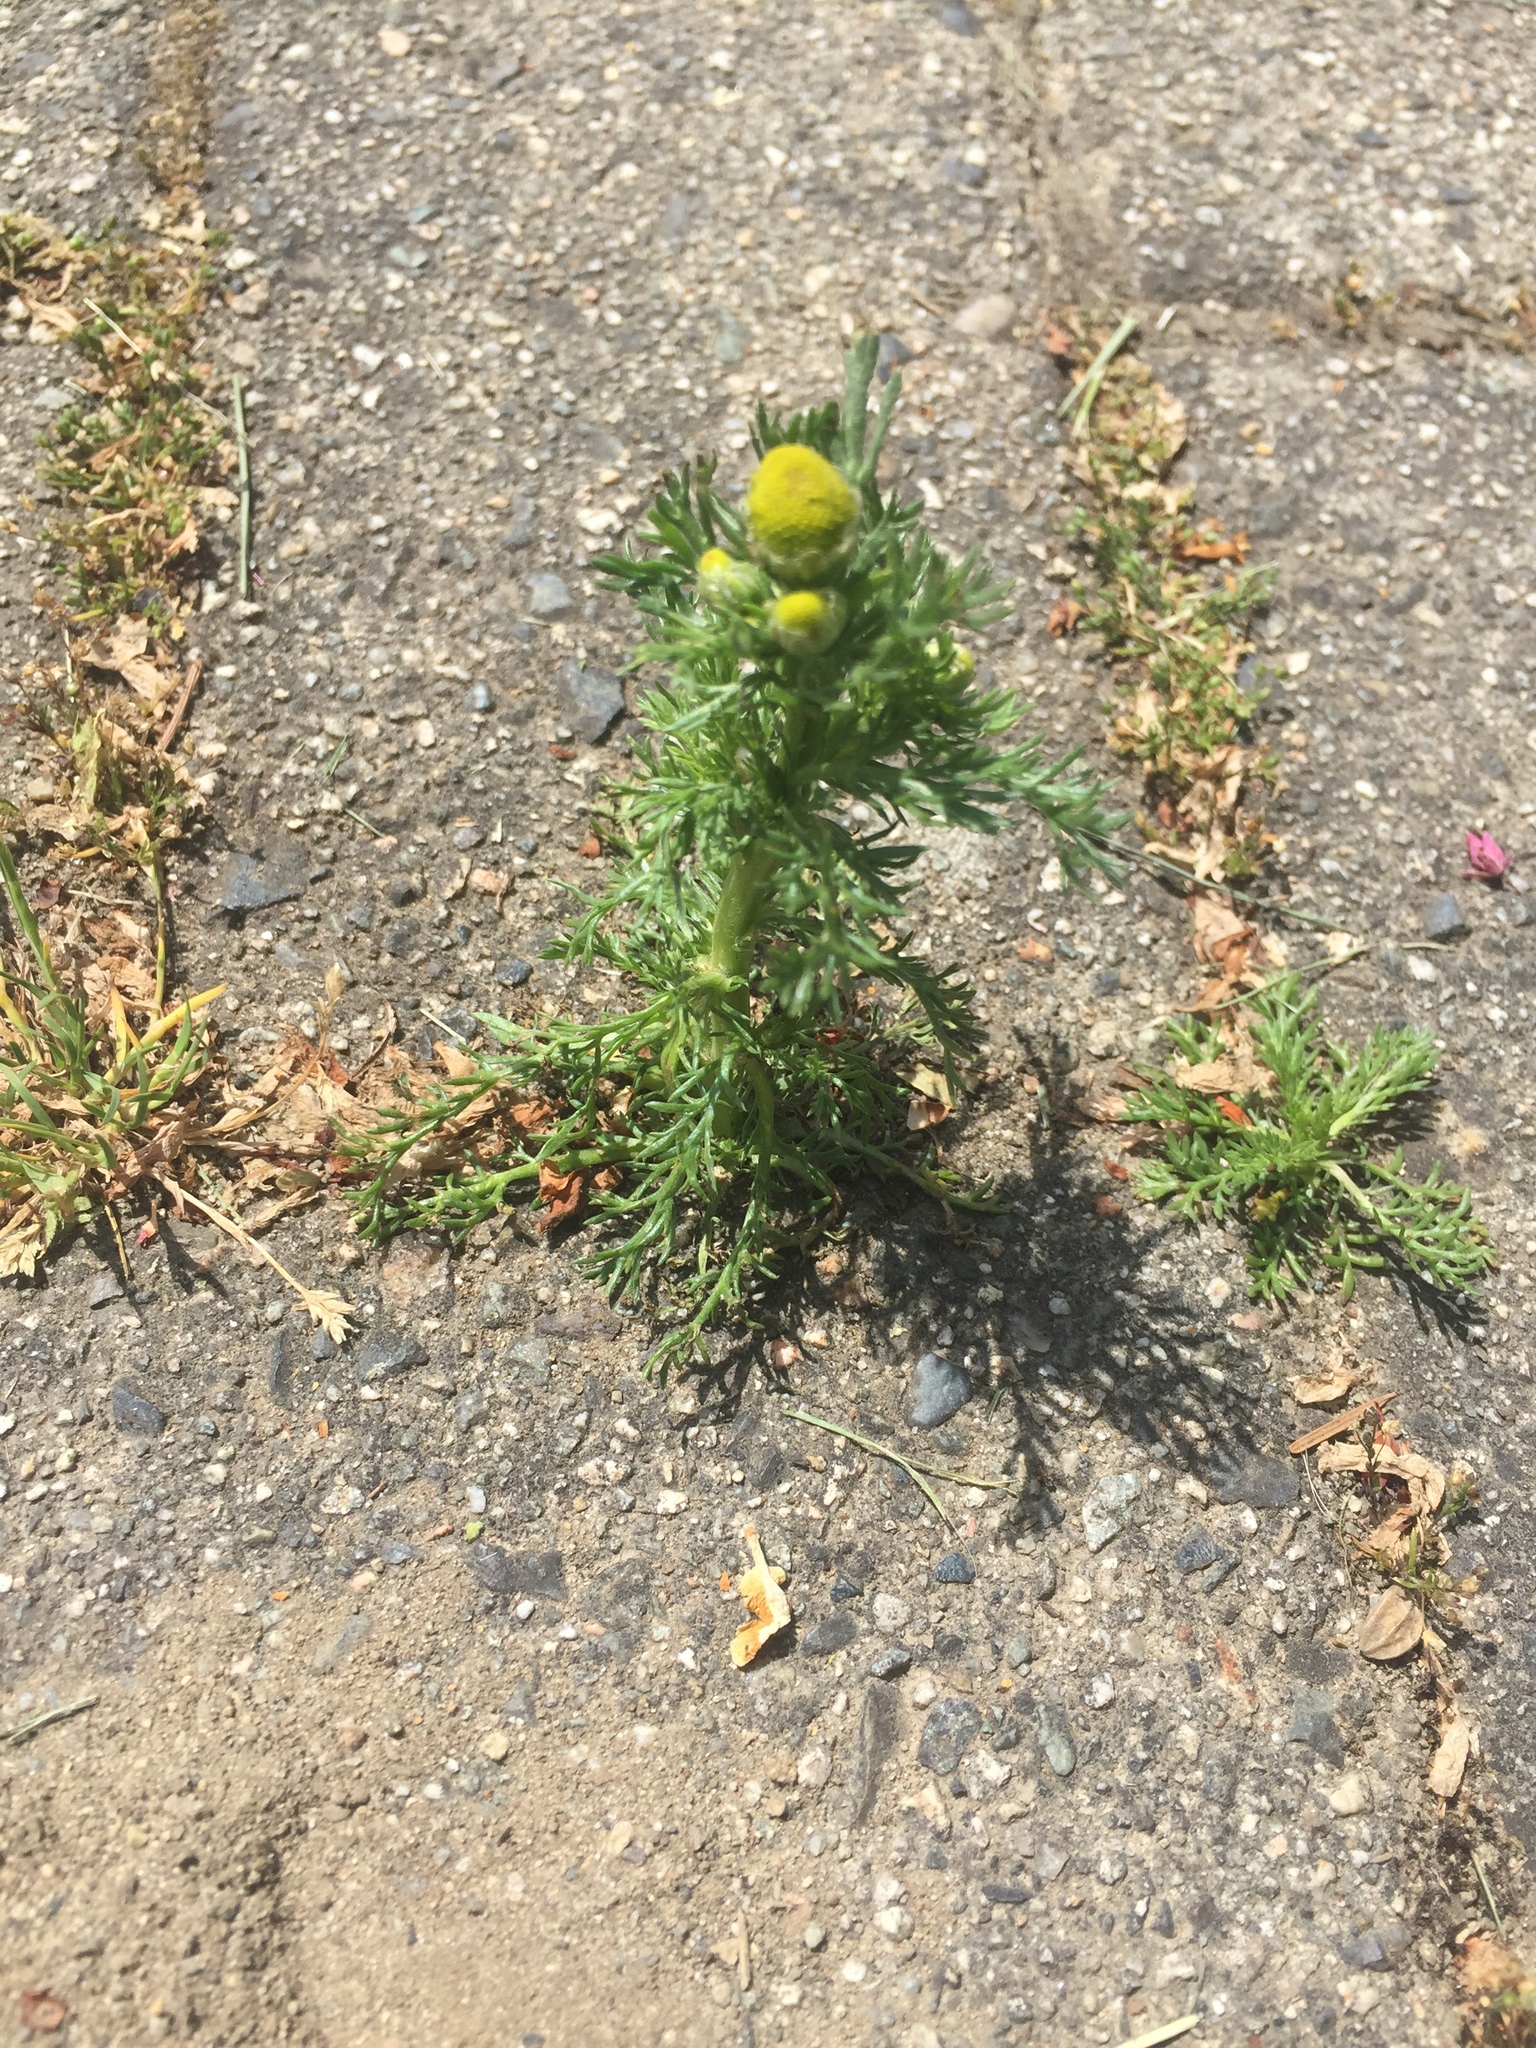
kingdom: Plantae
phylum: Tracheophyta
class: Magnoliopsida
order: Asterales
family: Asteraceae
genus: Matricaria
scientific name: Matricaria discoidea
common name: Disc mayweed
